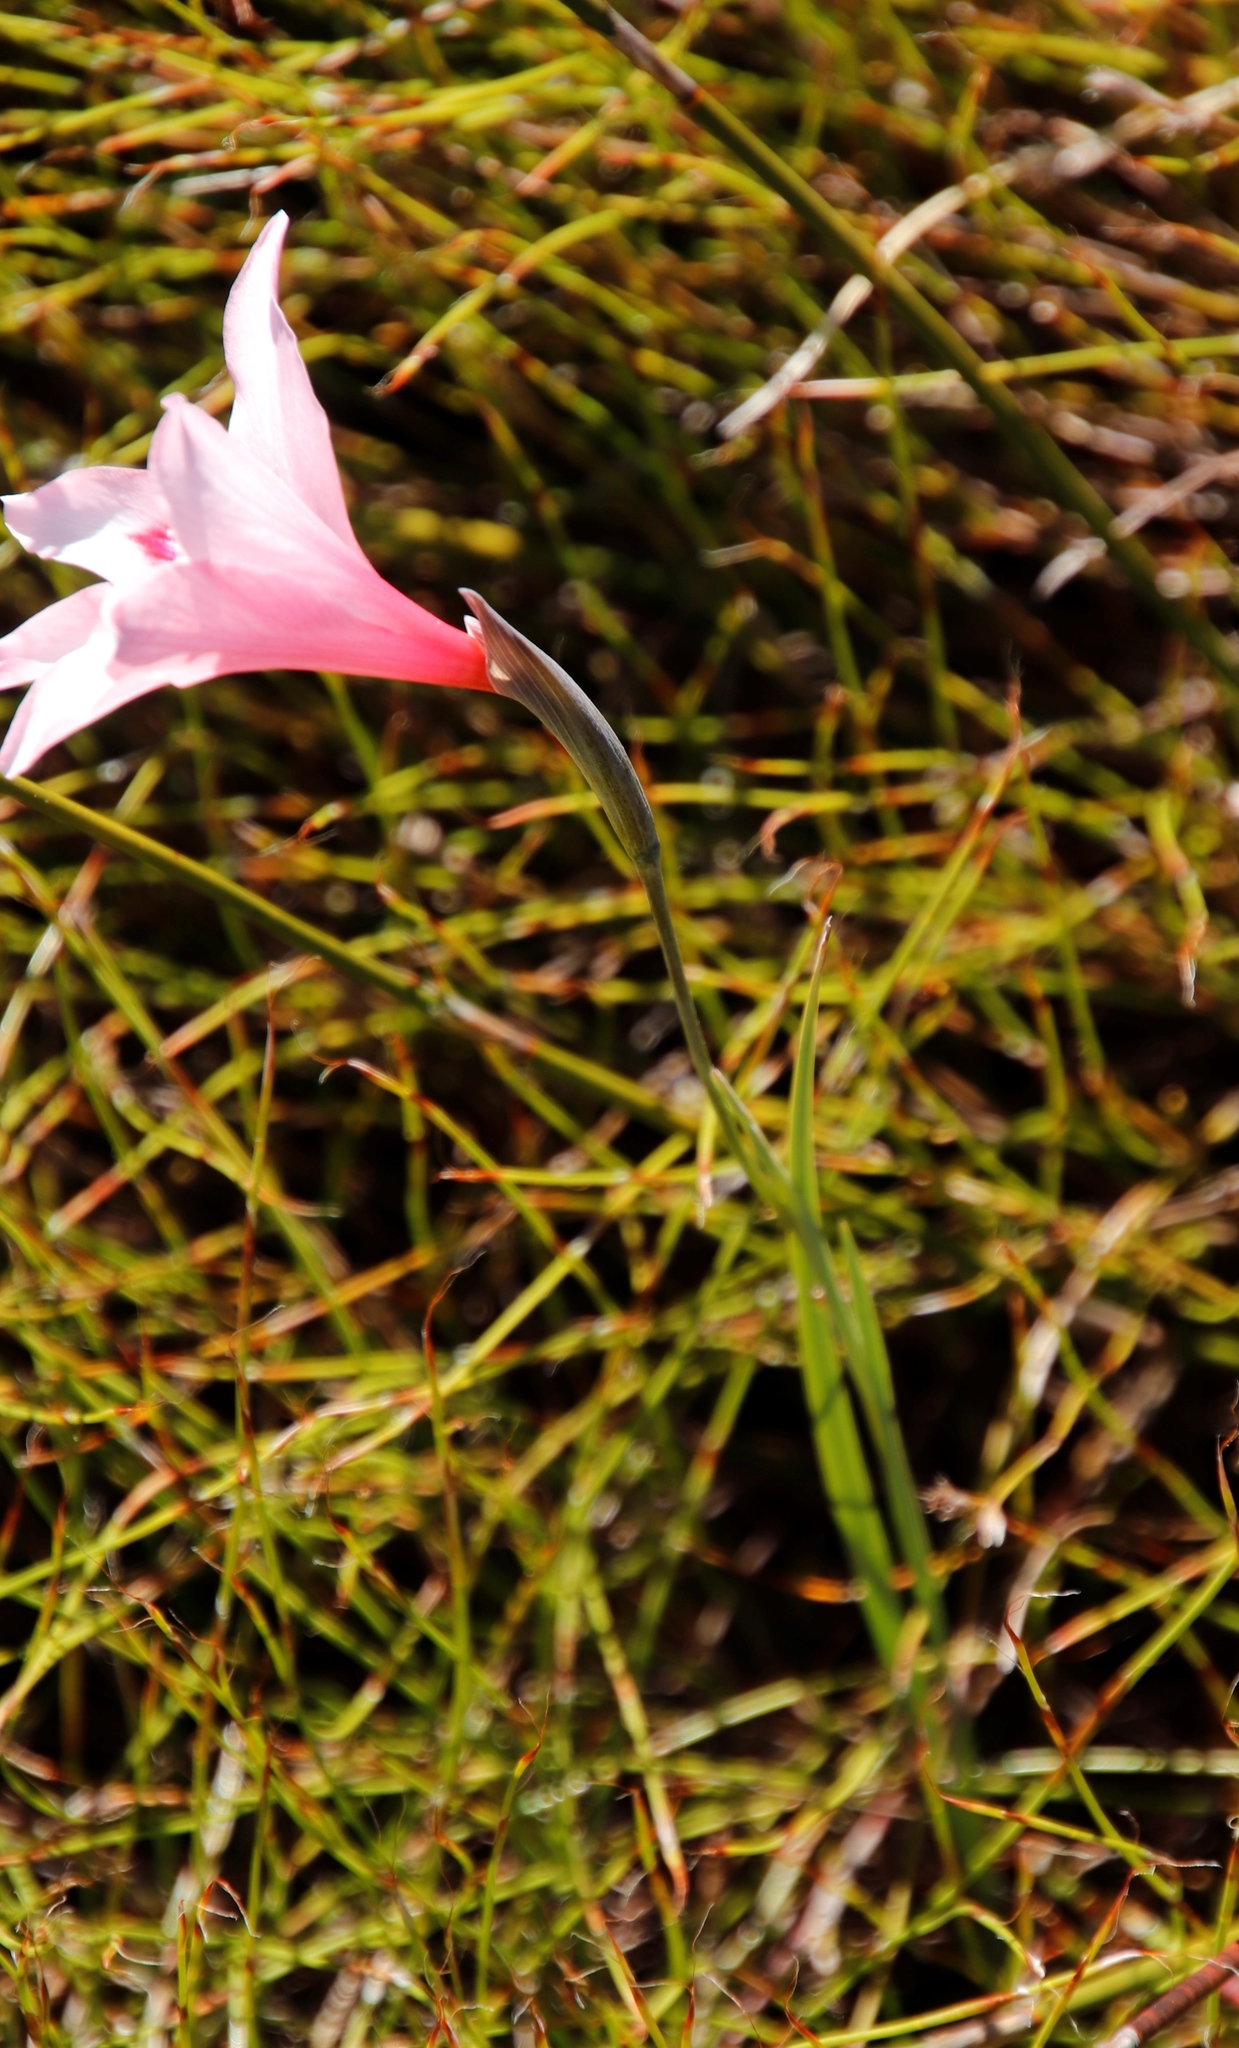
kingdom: Plantae
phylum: Tracheophyta
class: Liliopsida
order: Asparagales
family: Iridaceae
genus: Gladiolus
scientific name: Gladiolus pappei
